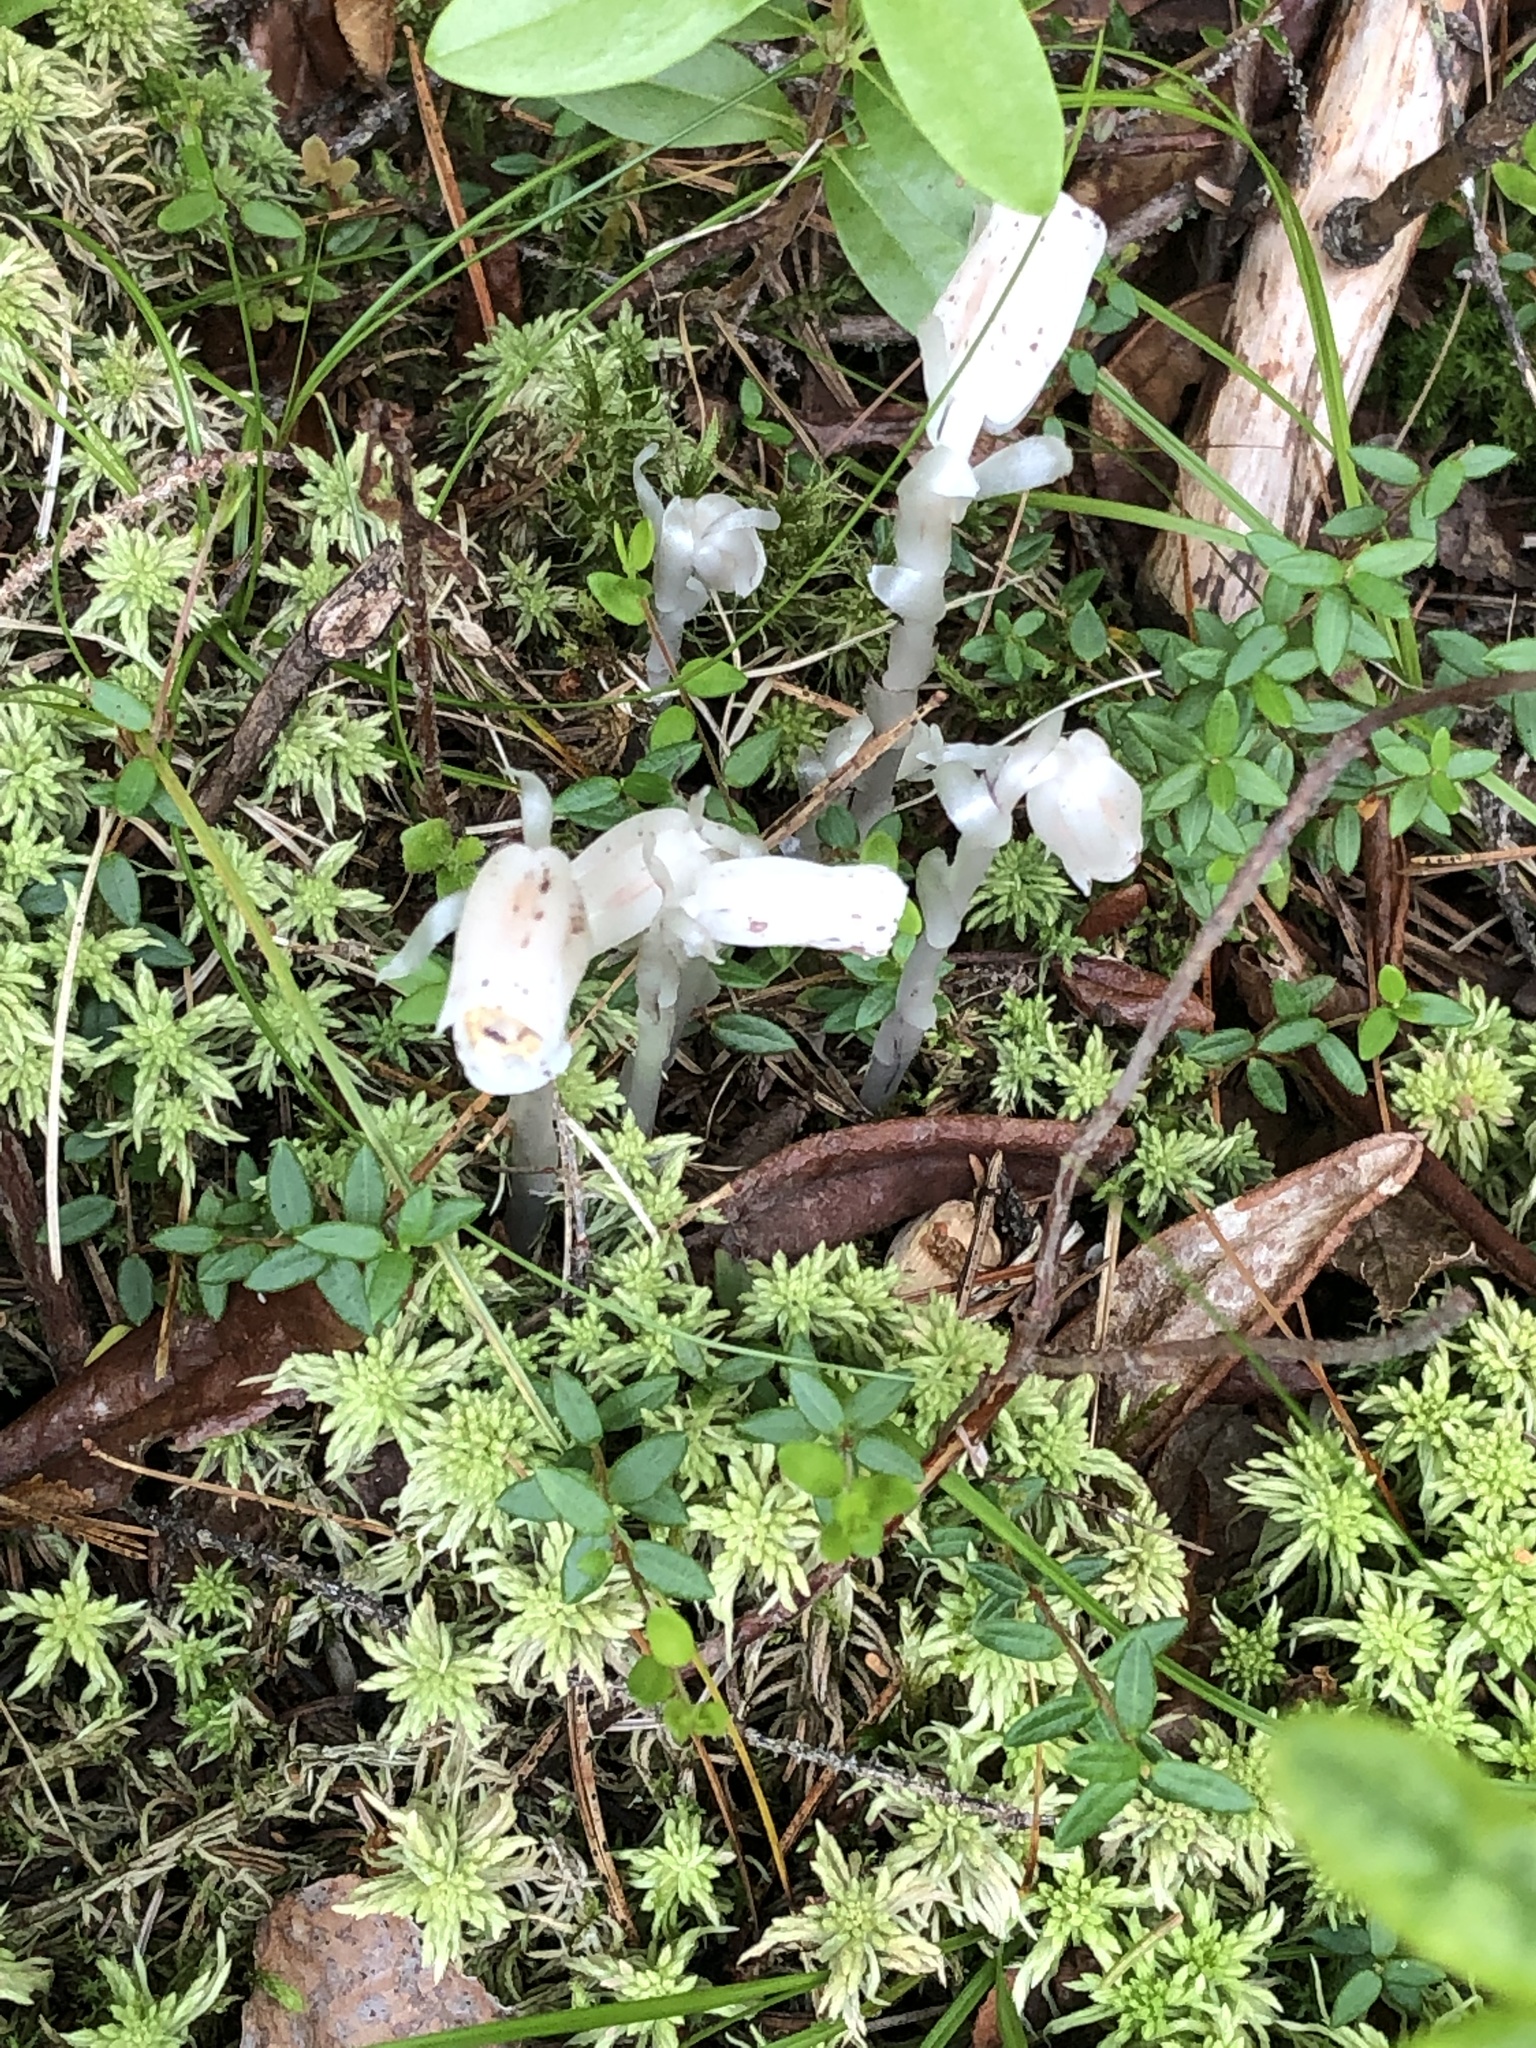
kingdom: Plantae
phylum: Tracheophyta
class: Magnoliopsida
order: Ericales
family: Ericaceae
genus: Monotropa
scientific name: Monotropa uniflora
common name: Convulsion root
